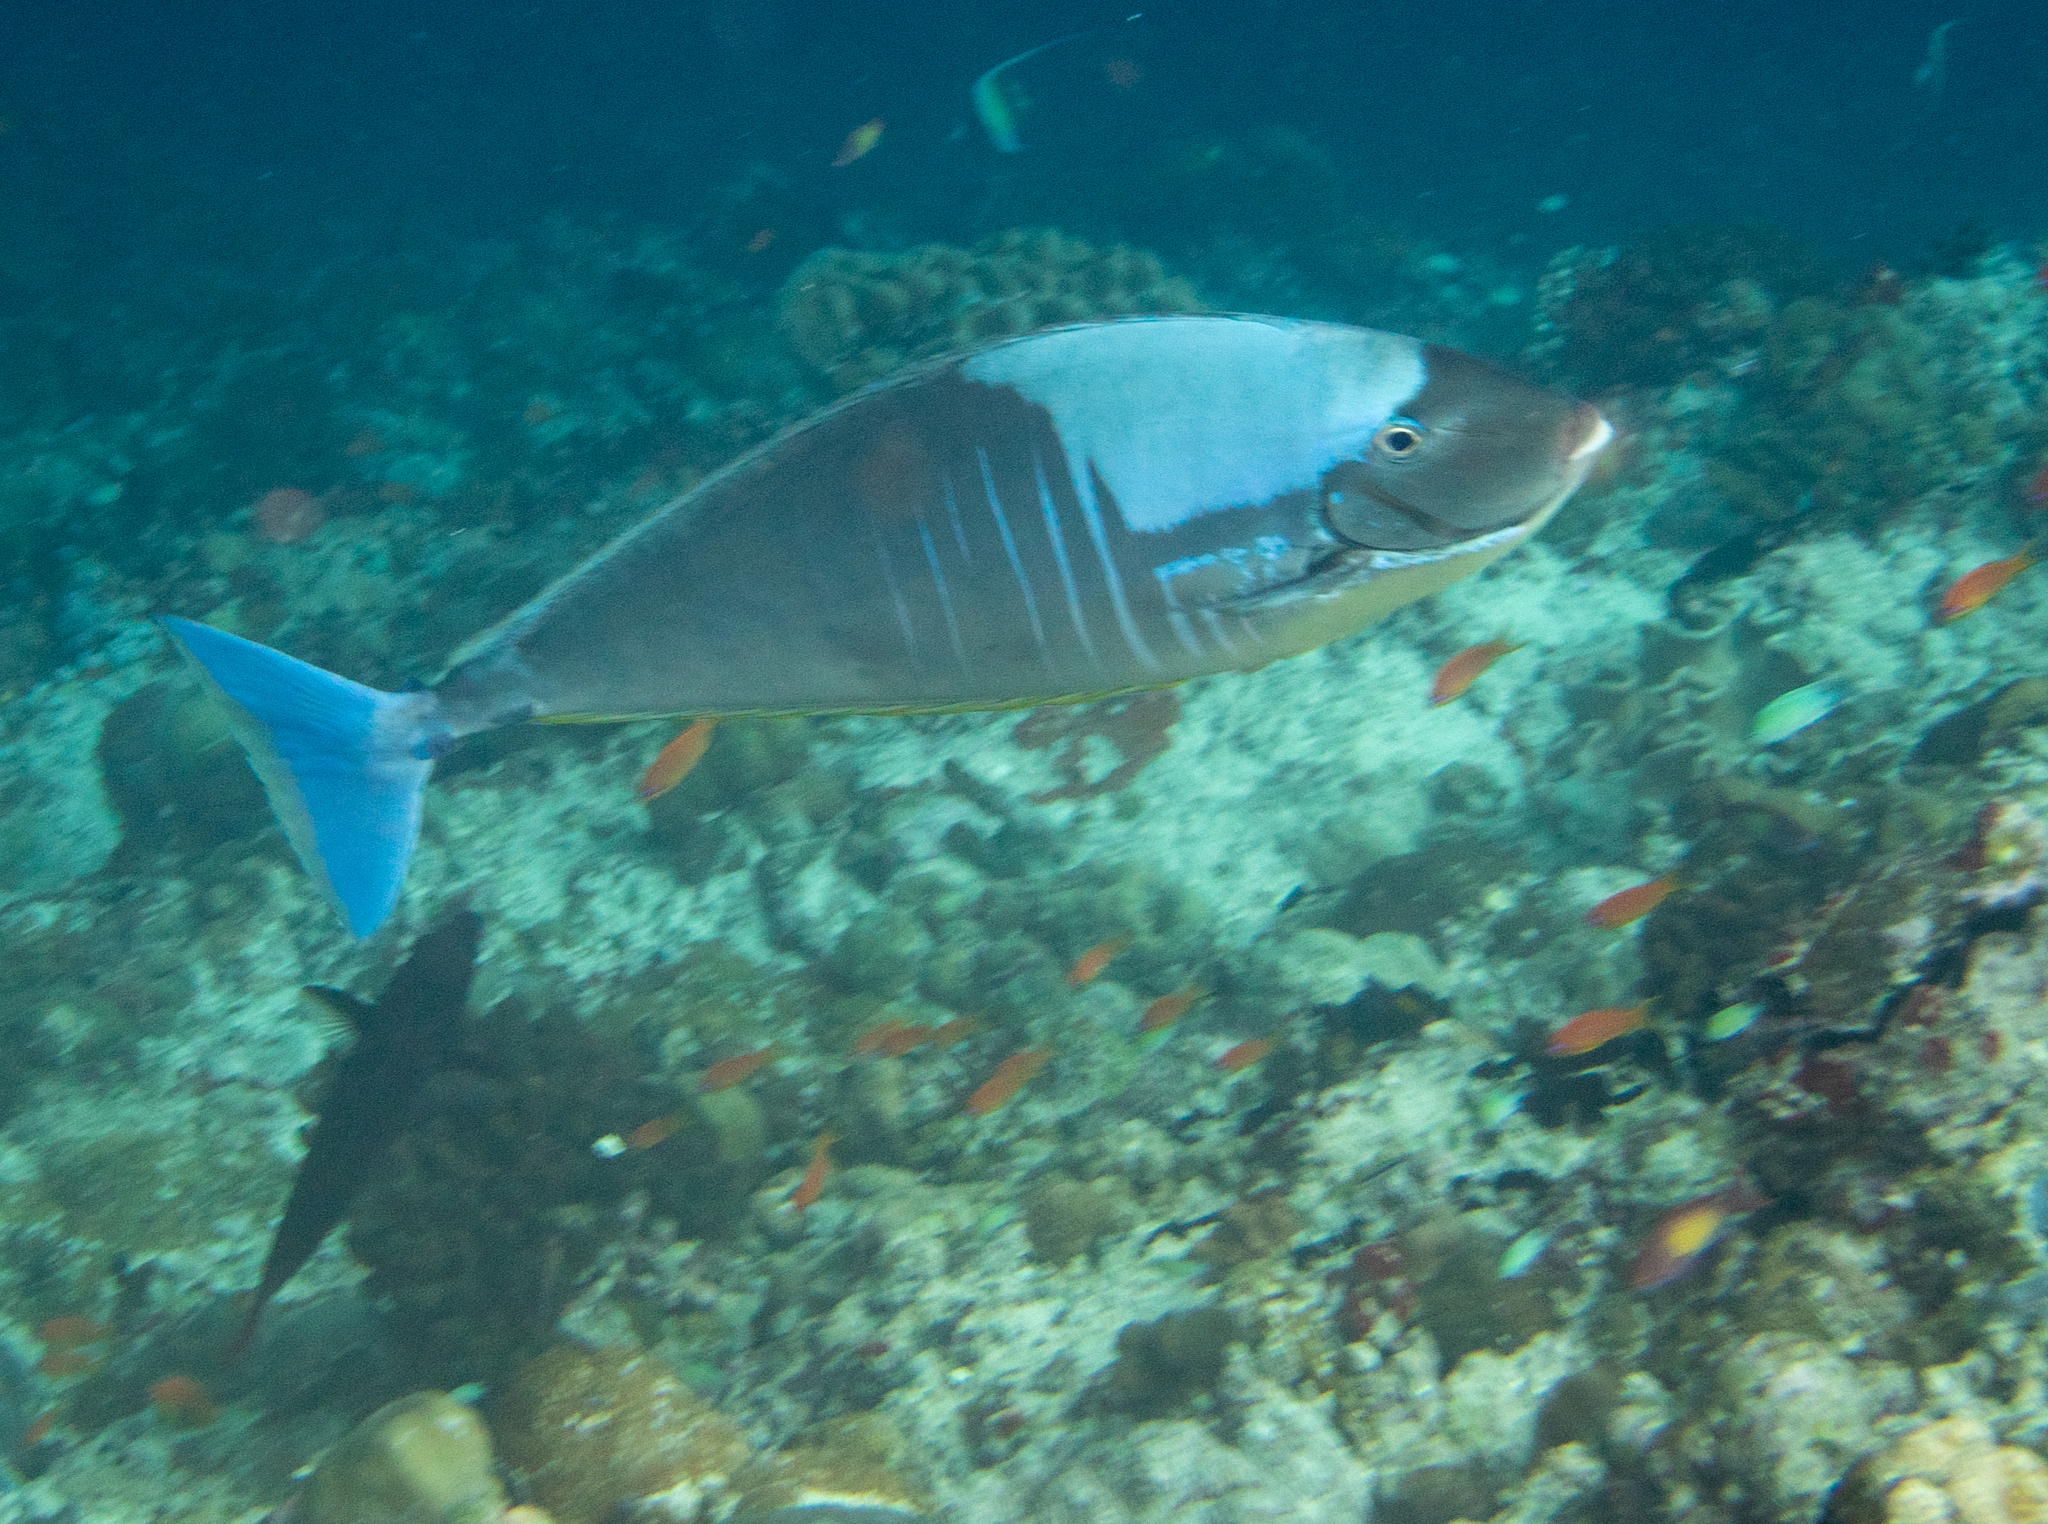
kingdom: Animalia
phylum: Chordata
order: Perciformes
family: Acanthuridae
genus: Naso
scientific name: Naso hexacanthus
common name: Black unicornfish
